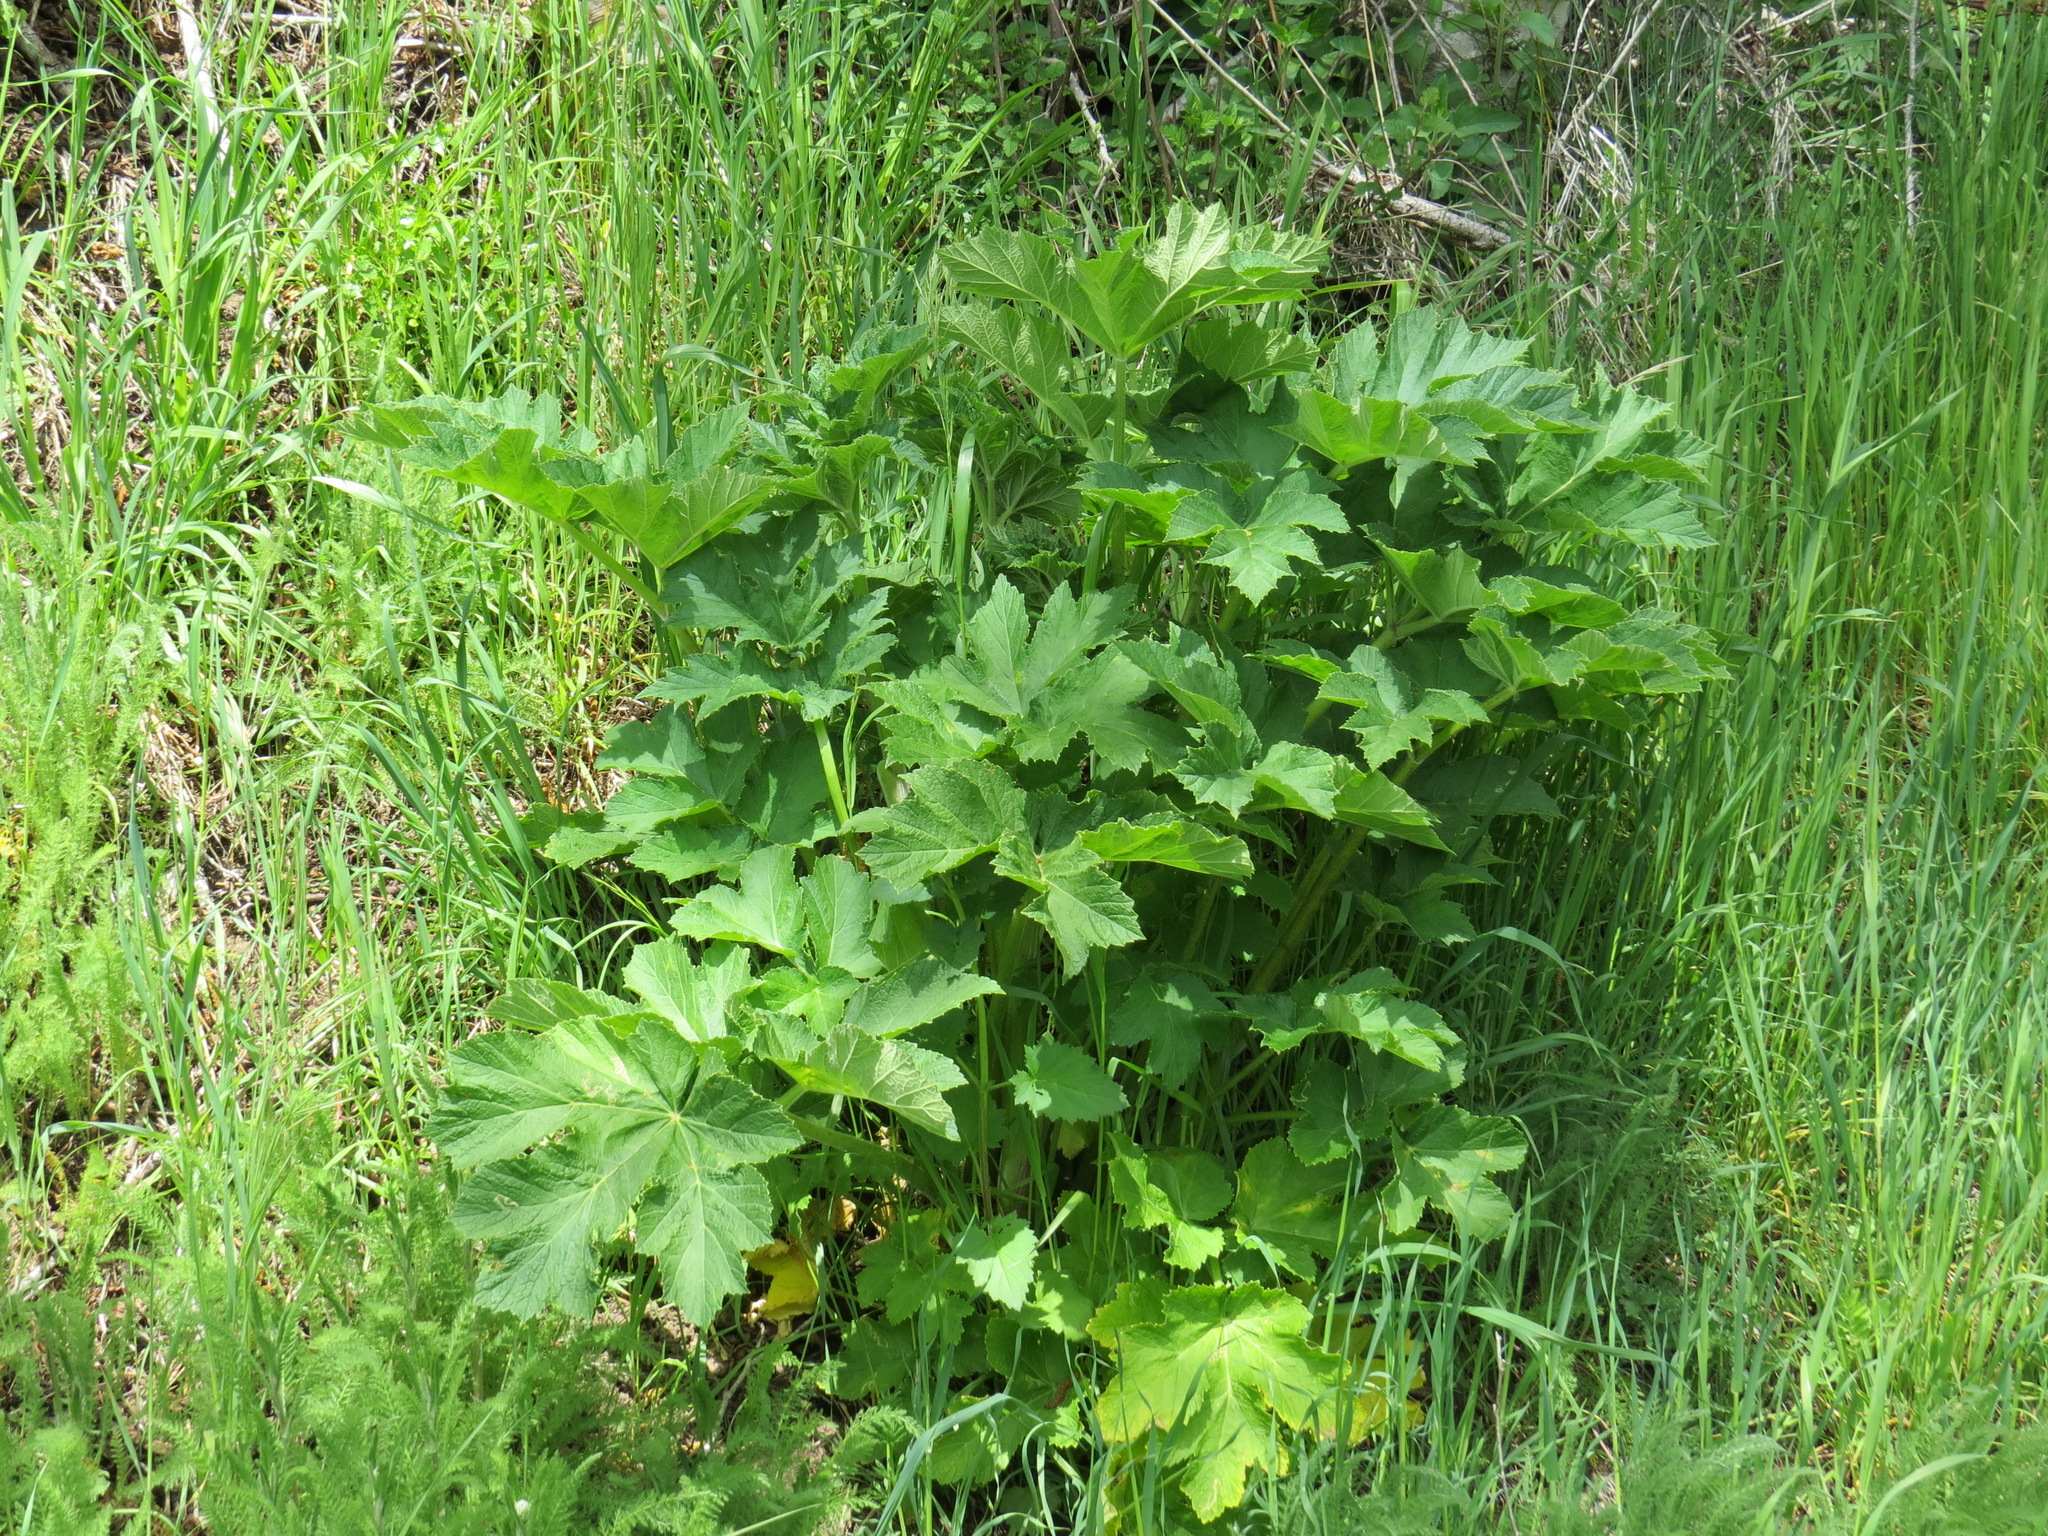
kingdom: Plantae
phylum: Tracheophyta
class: Magnoliopsida
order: Apiales
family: Apiaceae
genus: Heracleum
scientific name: Heracleum maximum
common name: American cow parsnip
